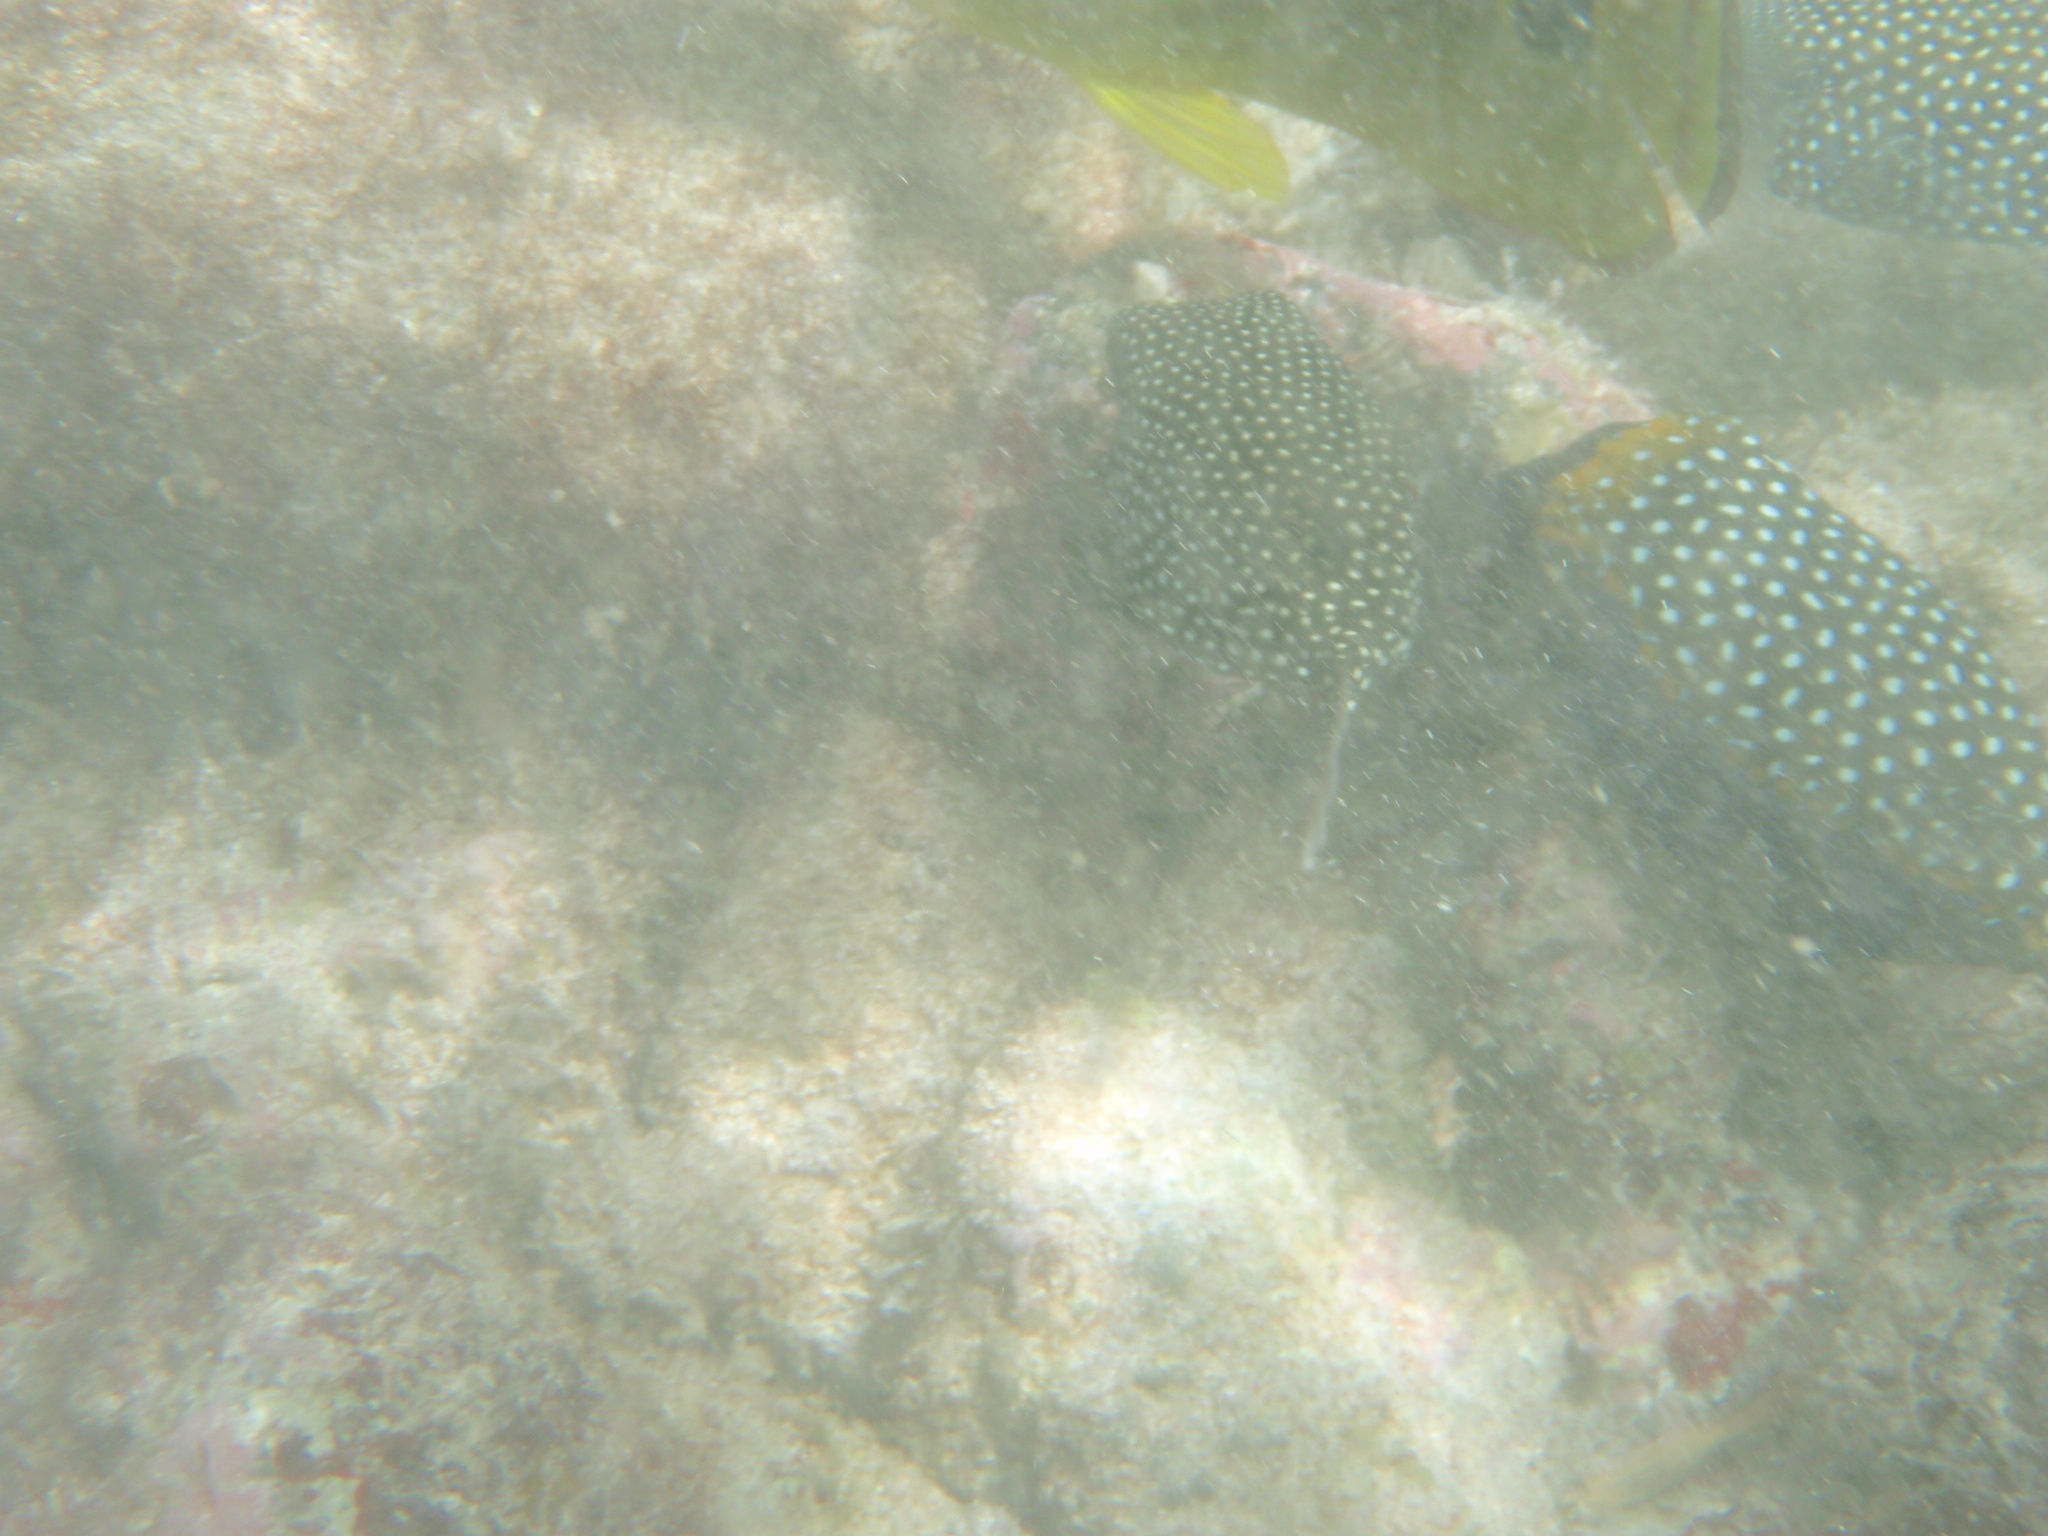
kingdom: Animalia
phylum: Chordata
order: Tetraodontiformes
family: Ostraciidae
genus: Ostracion
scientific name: Ostracion meleagris
